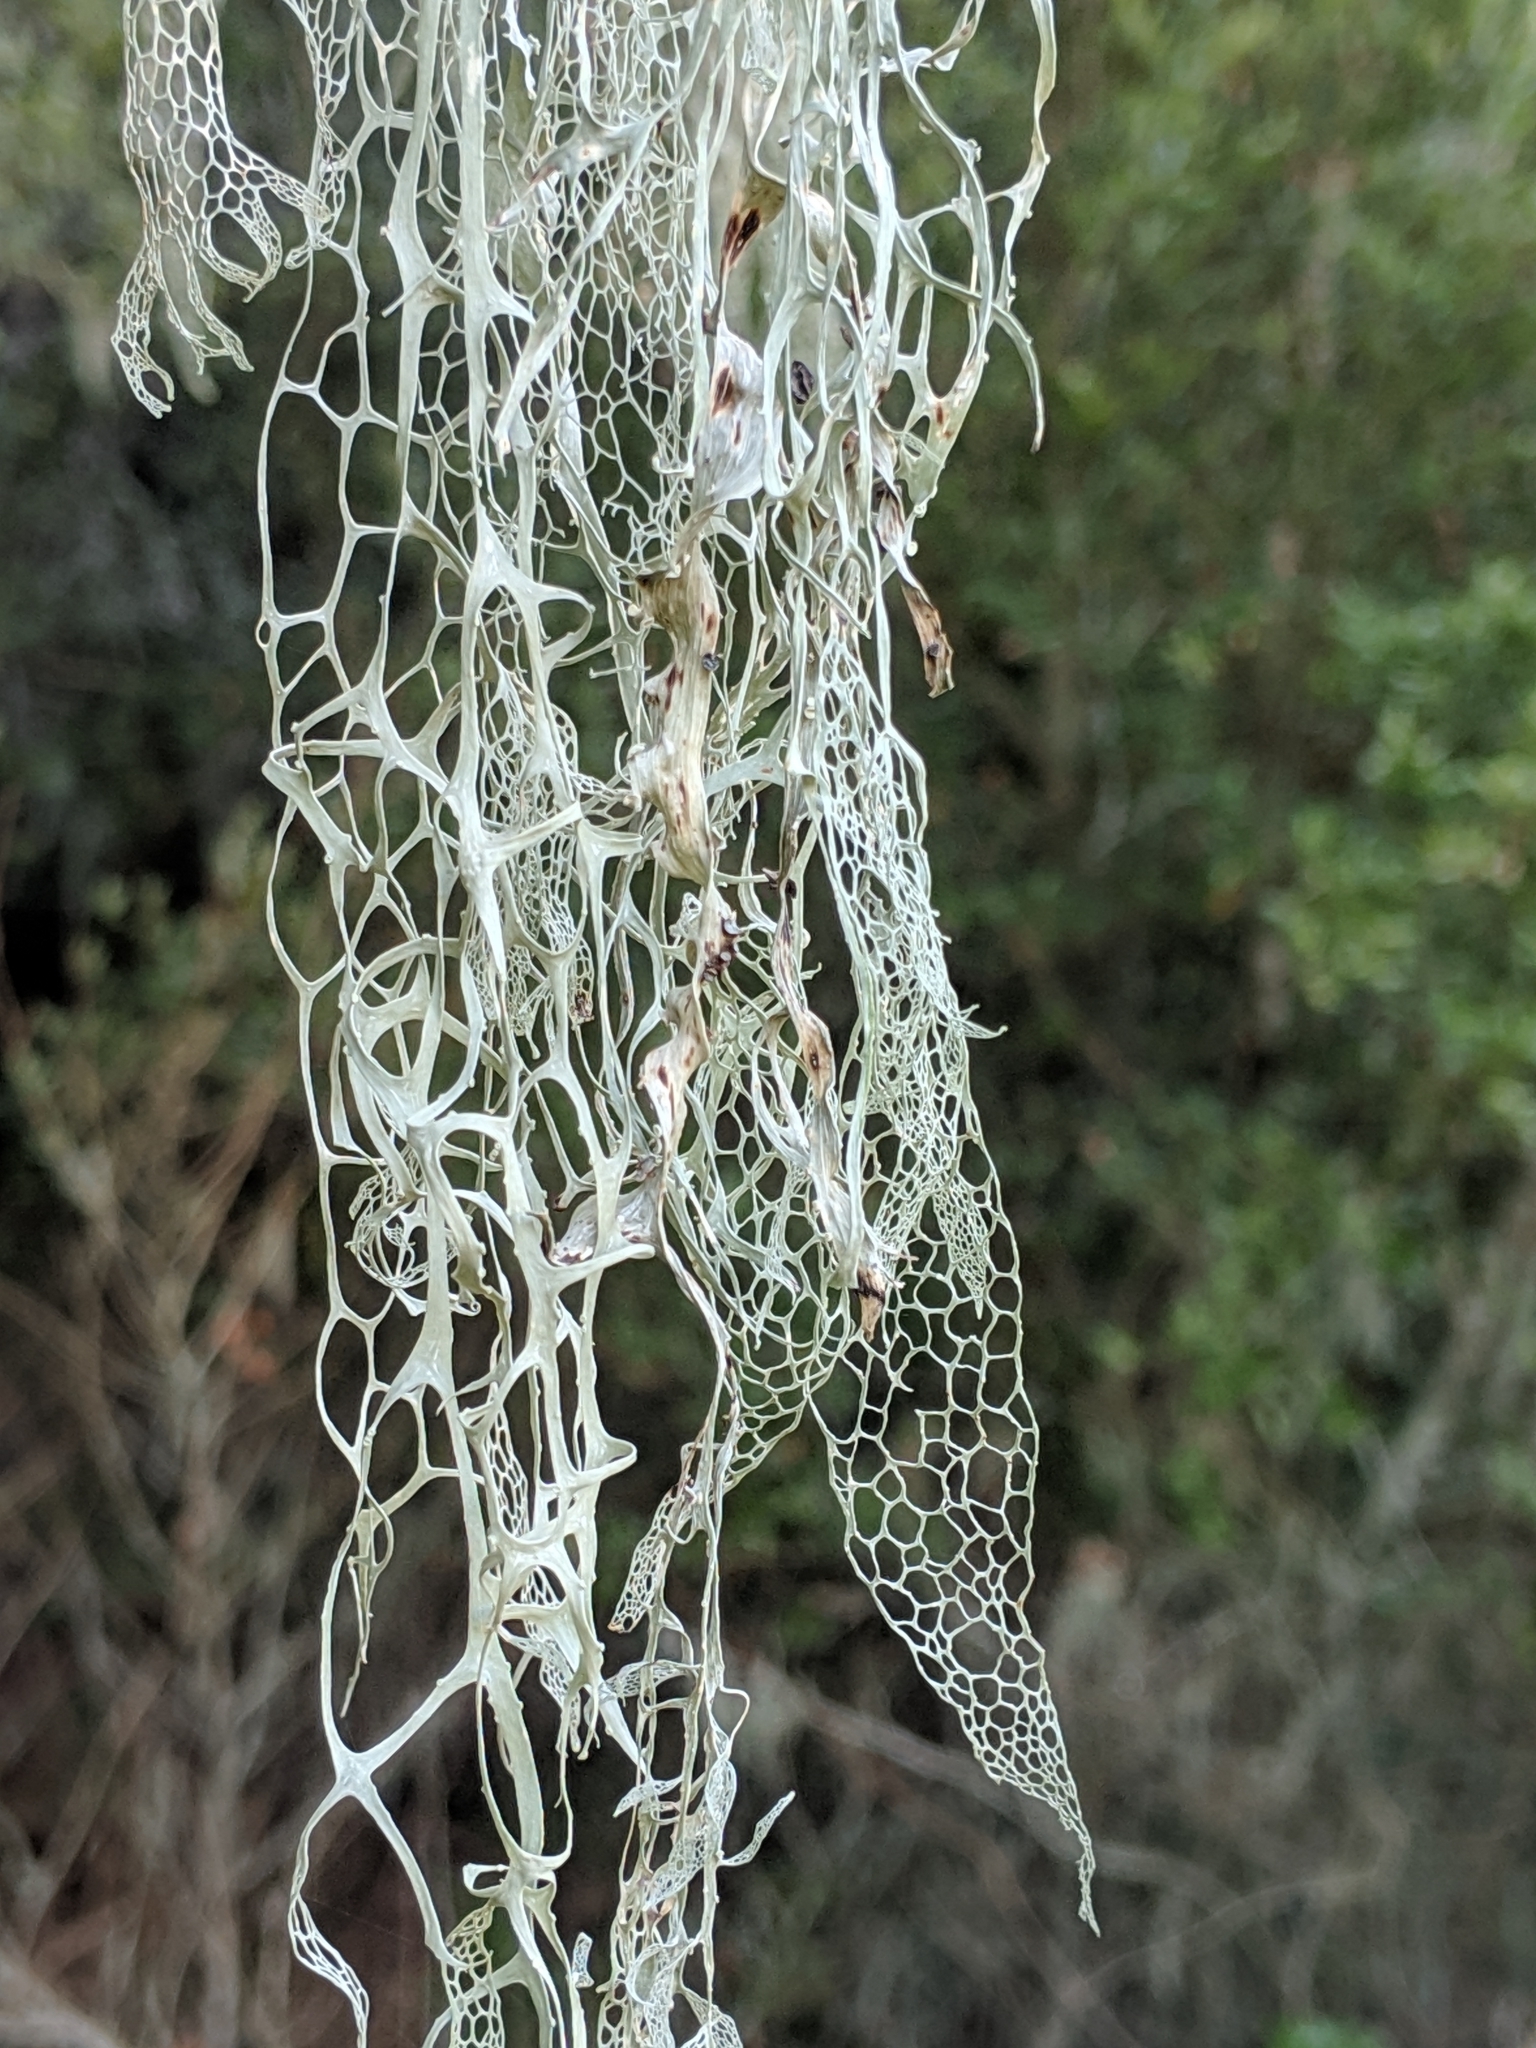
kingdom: Fungi
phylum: Ascomycota
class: Lecanoromycetes
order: Lecanorales
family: Ramalinaceae
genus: Ramalina
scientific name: Ramalina menziesii
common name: Lace lichen
